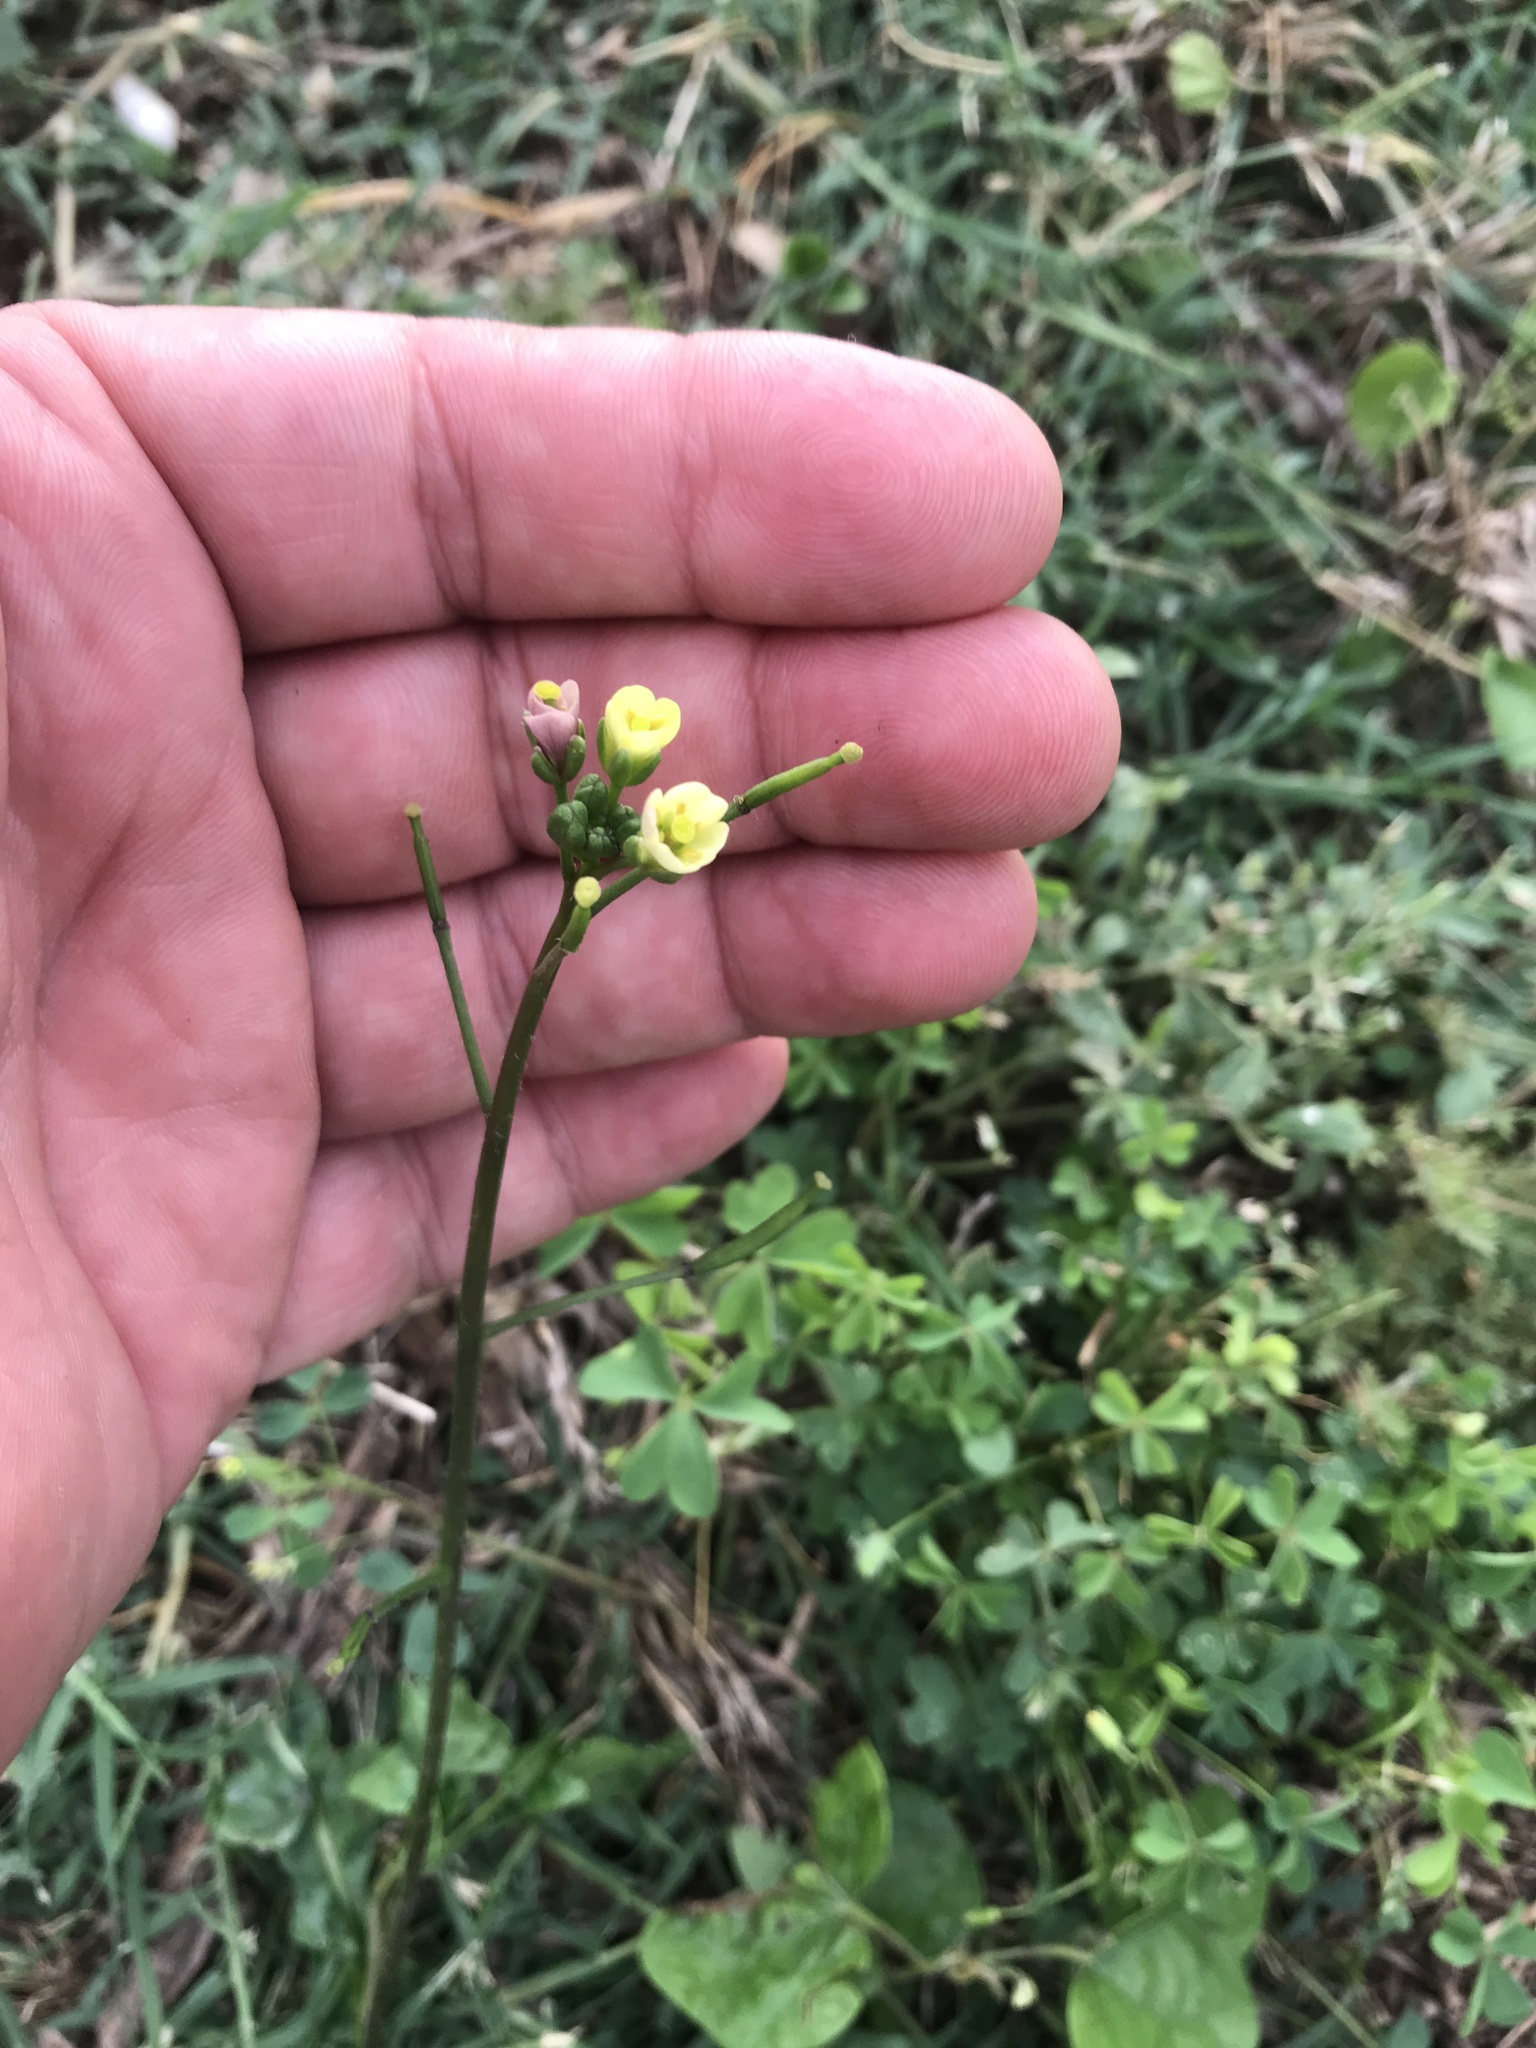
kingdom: Plantae
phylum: Tracheophyta
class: Magnoliopsida
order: Brassicales
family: Brassicaceae
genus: Diplotaxis
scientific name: Diplotaxis muralis
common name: Annual wall-rocket
